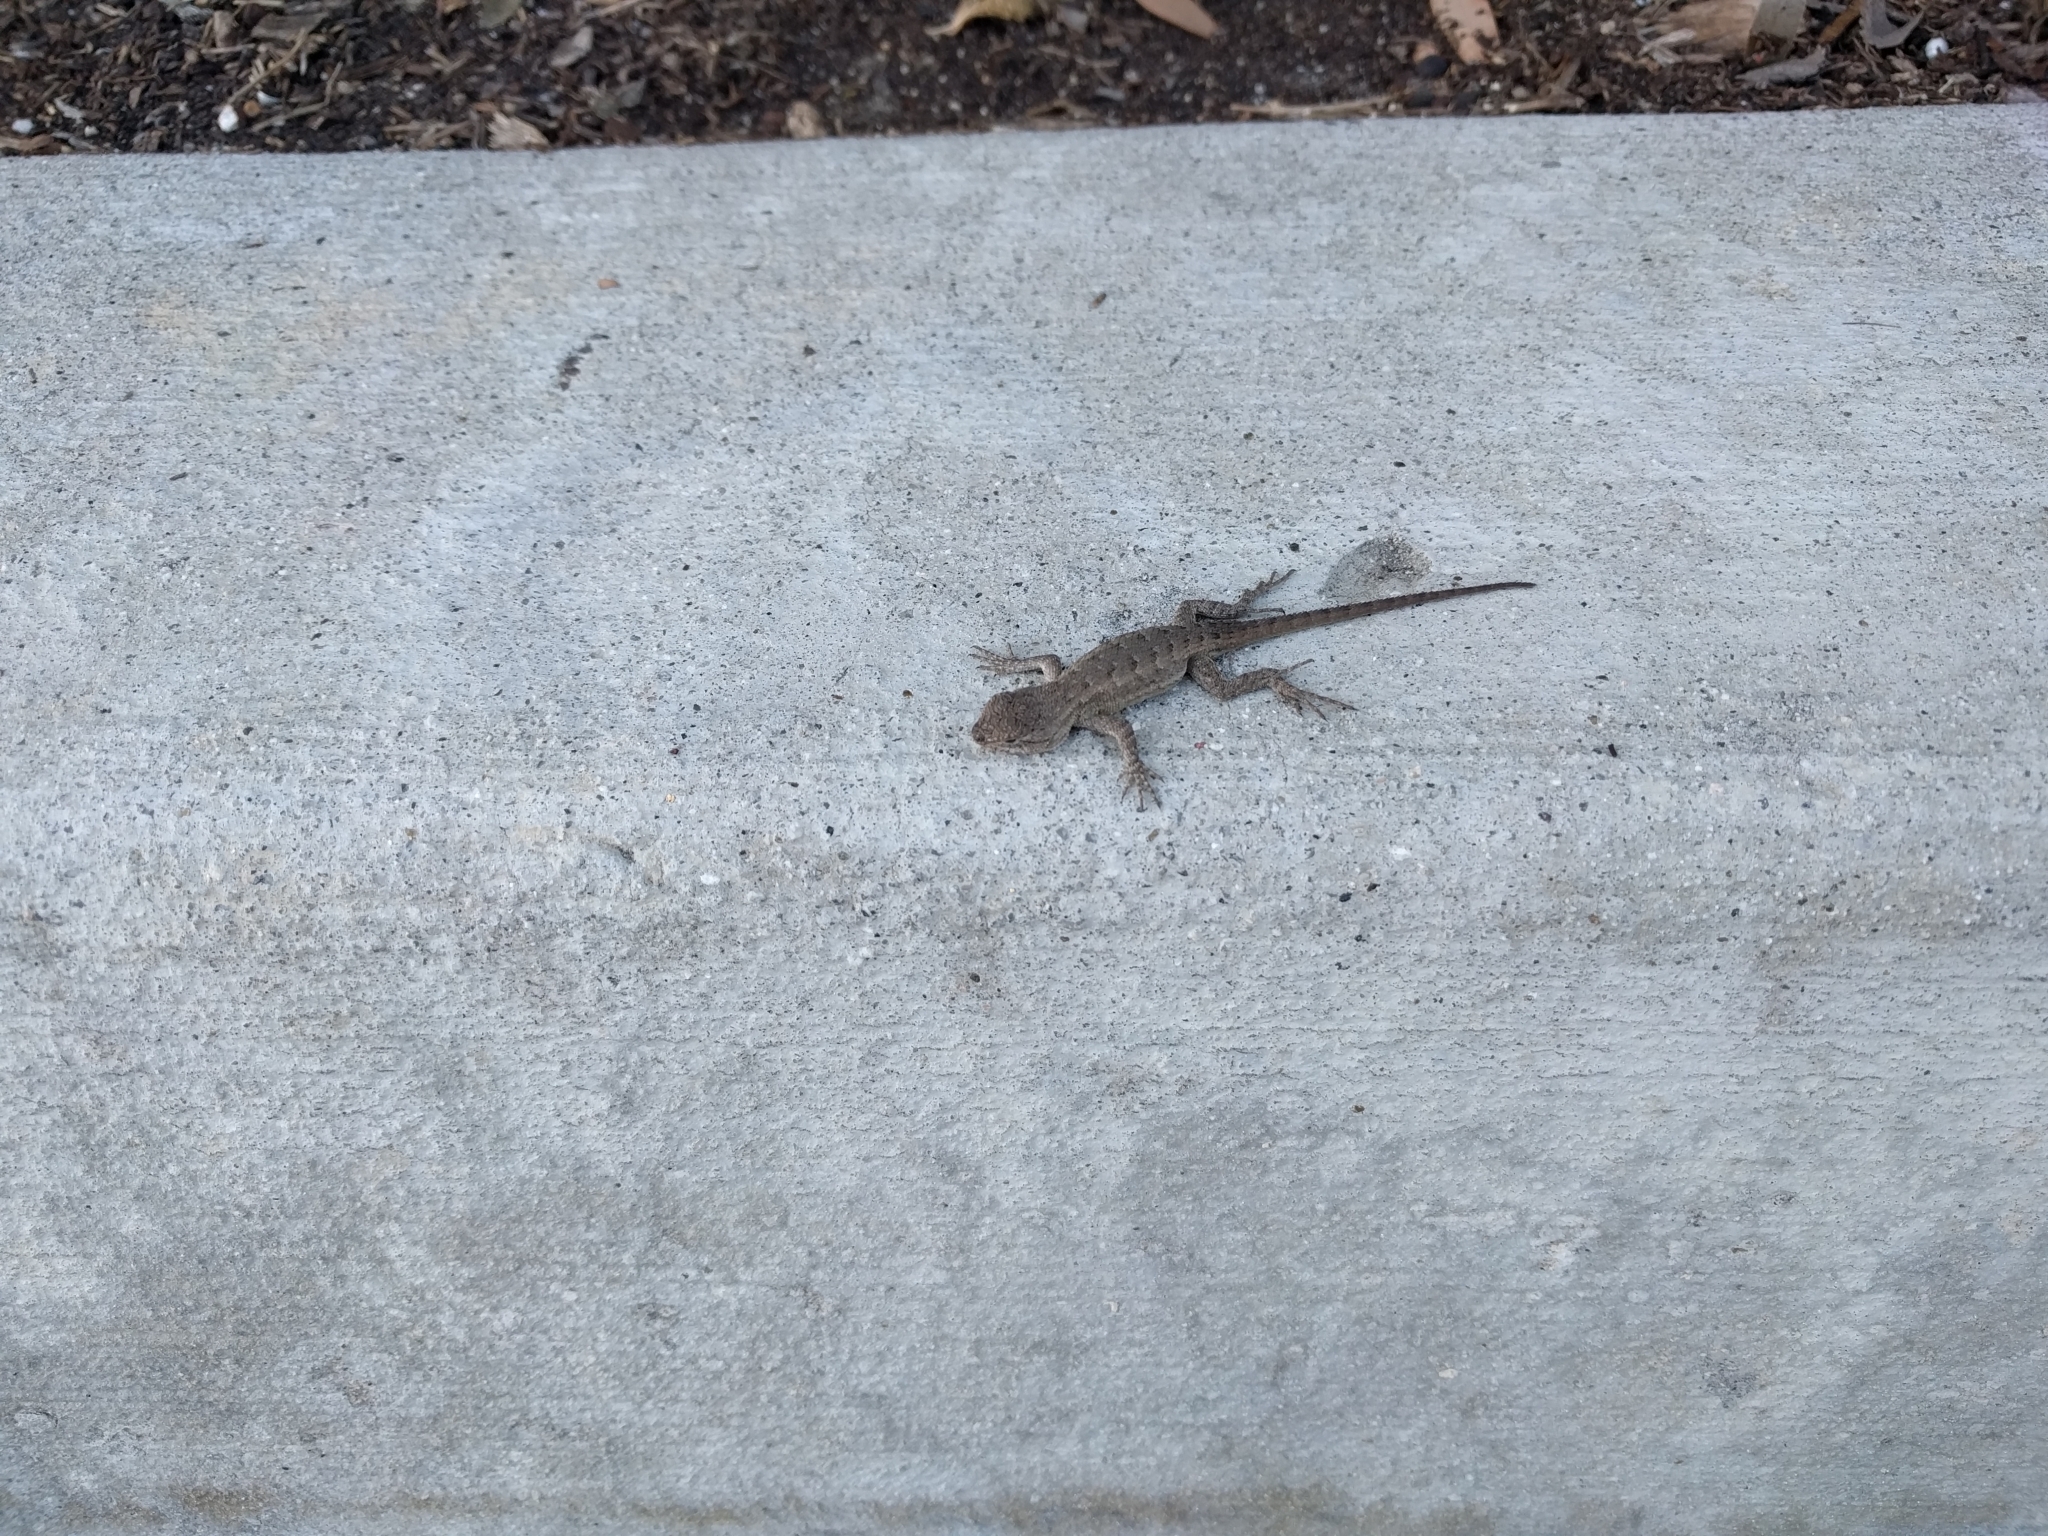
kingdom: Animalia
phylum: Chordata
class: Squamata
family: Phrynosomatidae
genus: Sceloporus
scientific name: Sceloporus occidentalis
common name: Western fence lizard
